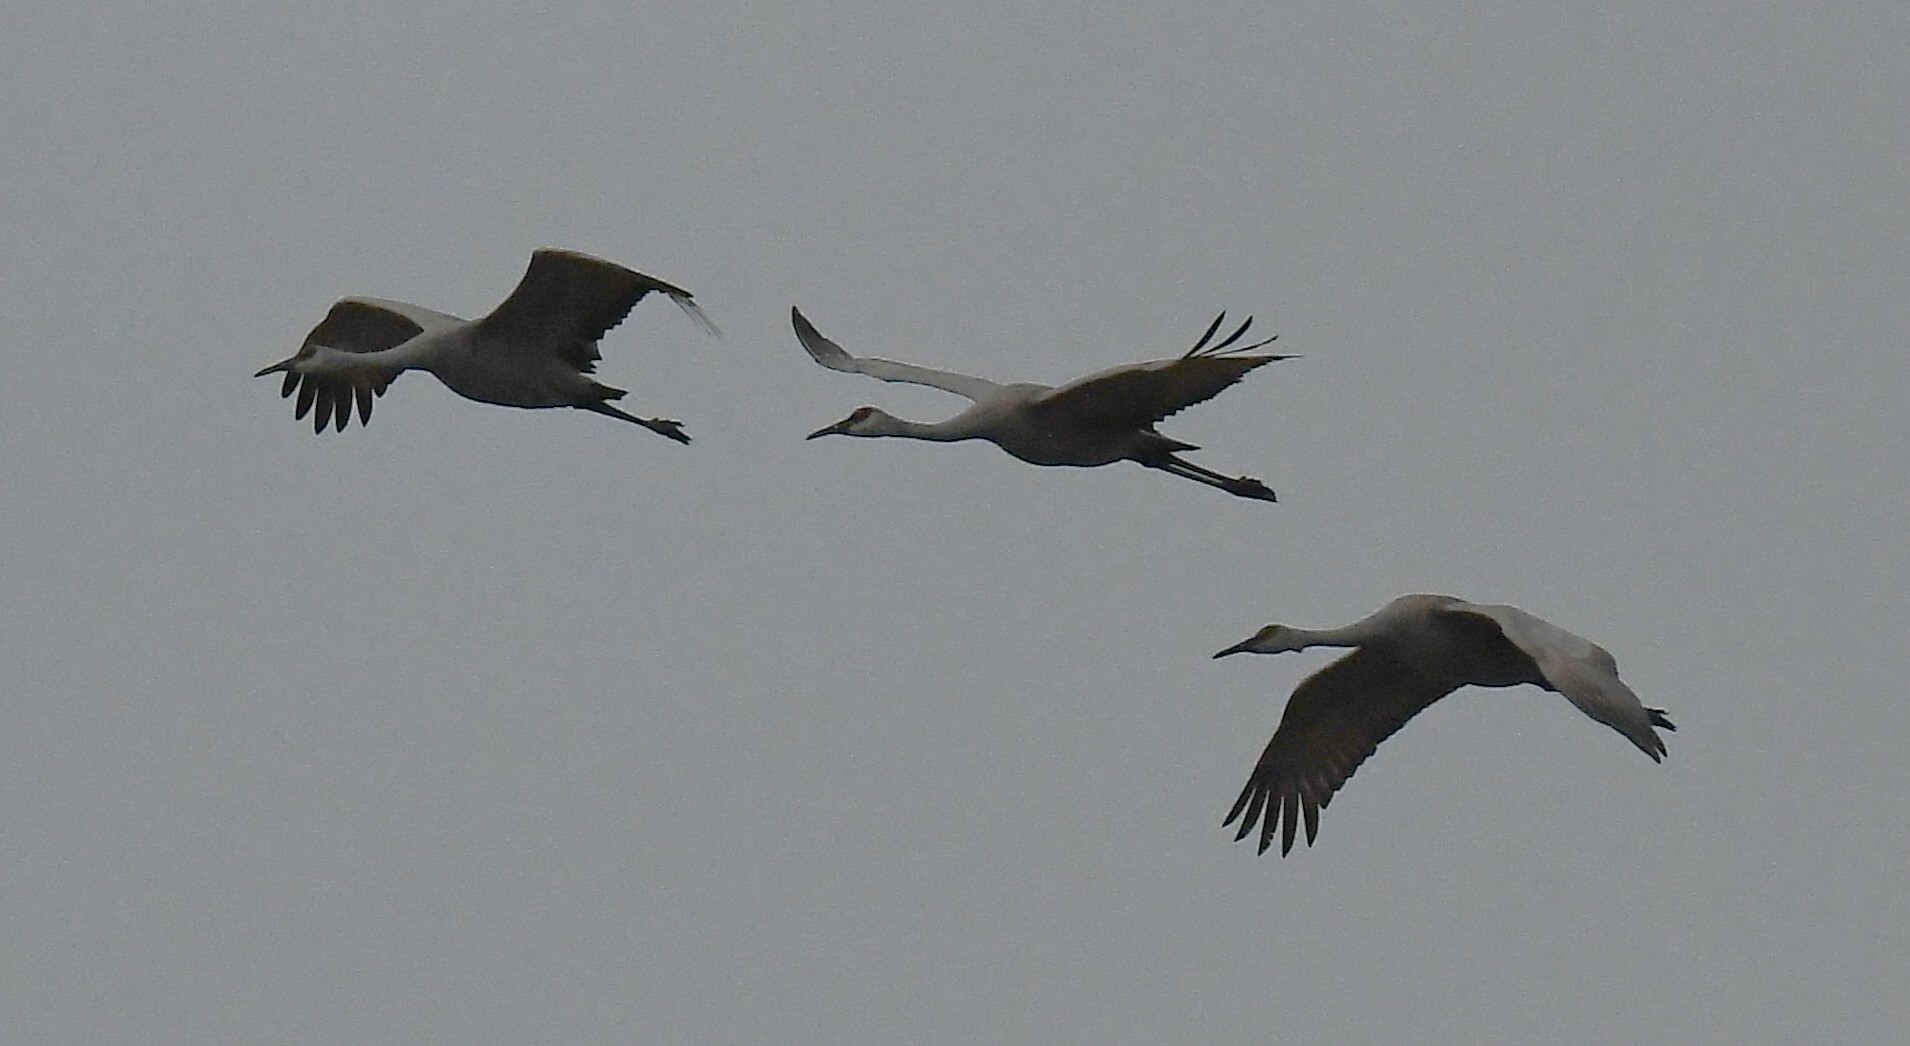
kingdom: Animalia
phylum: Chordata
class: Aves
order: Gruiformes
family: Gruidae
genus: Grus
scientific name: Grus canadensis
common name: Sandhill crane
